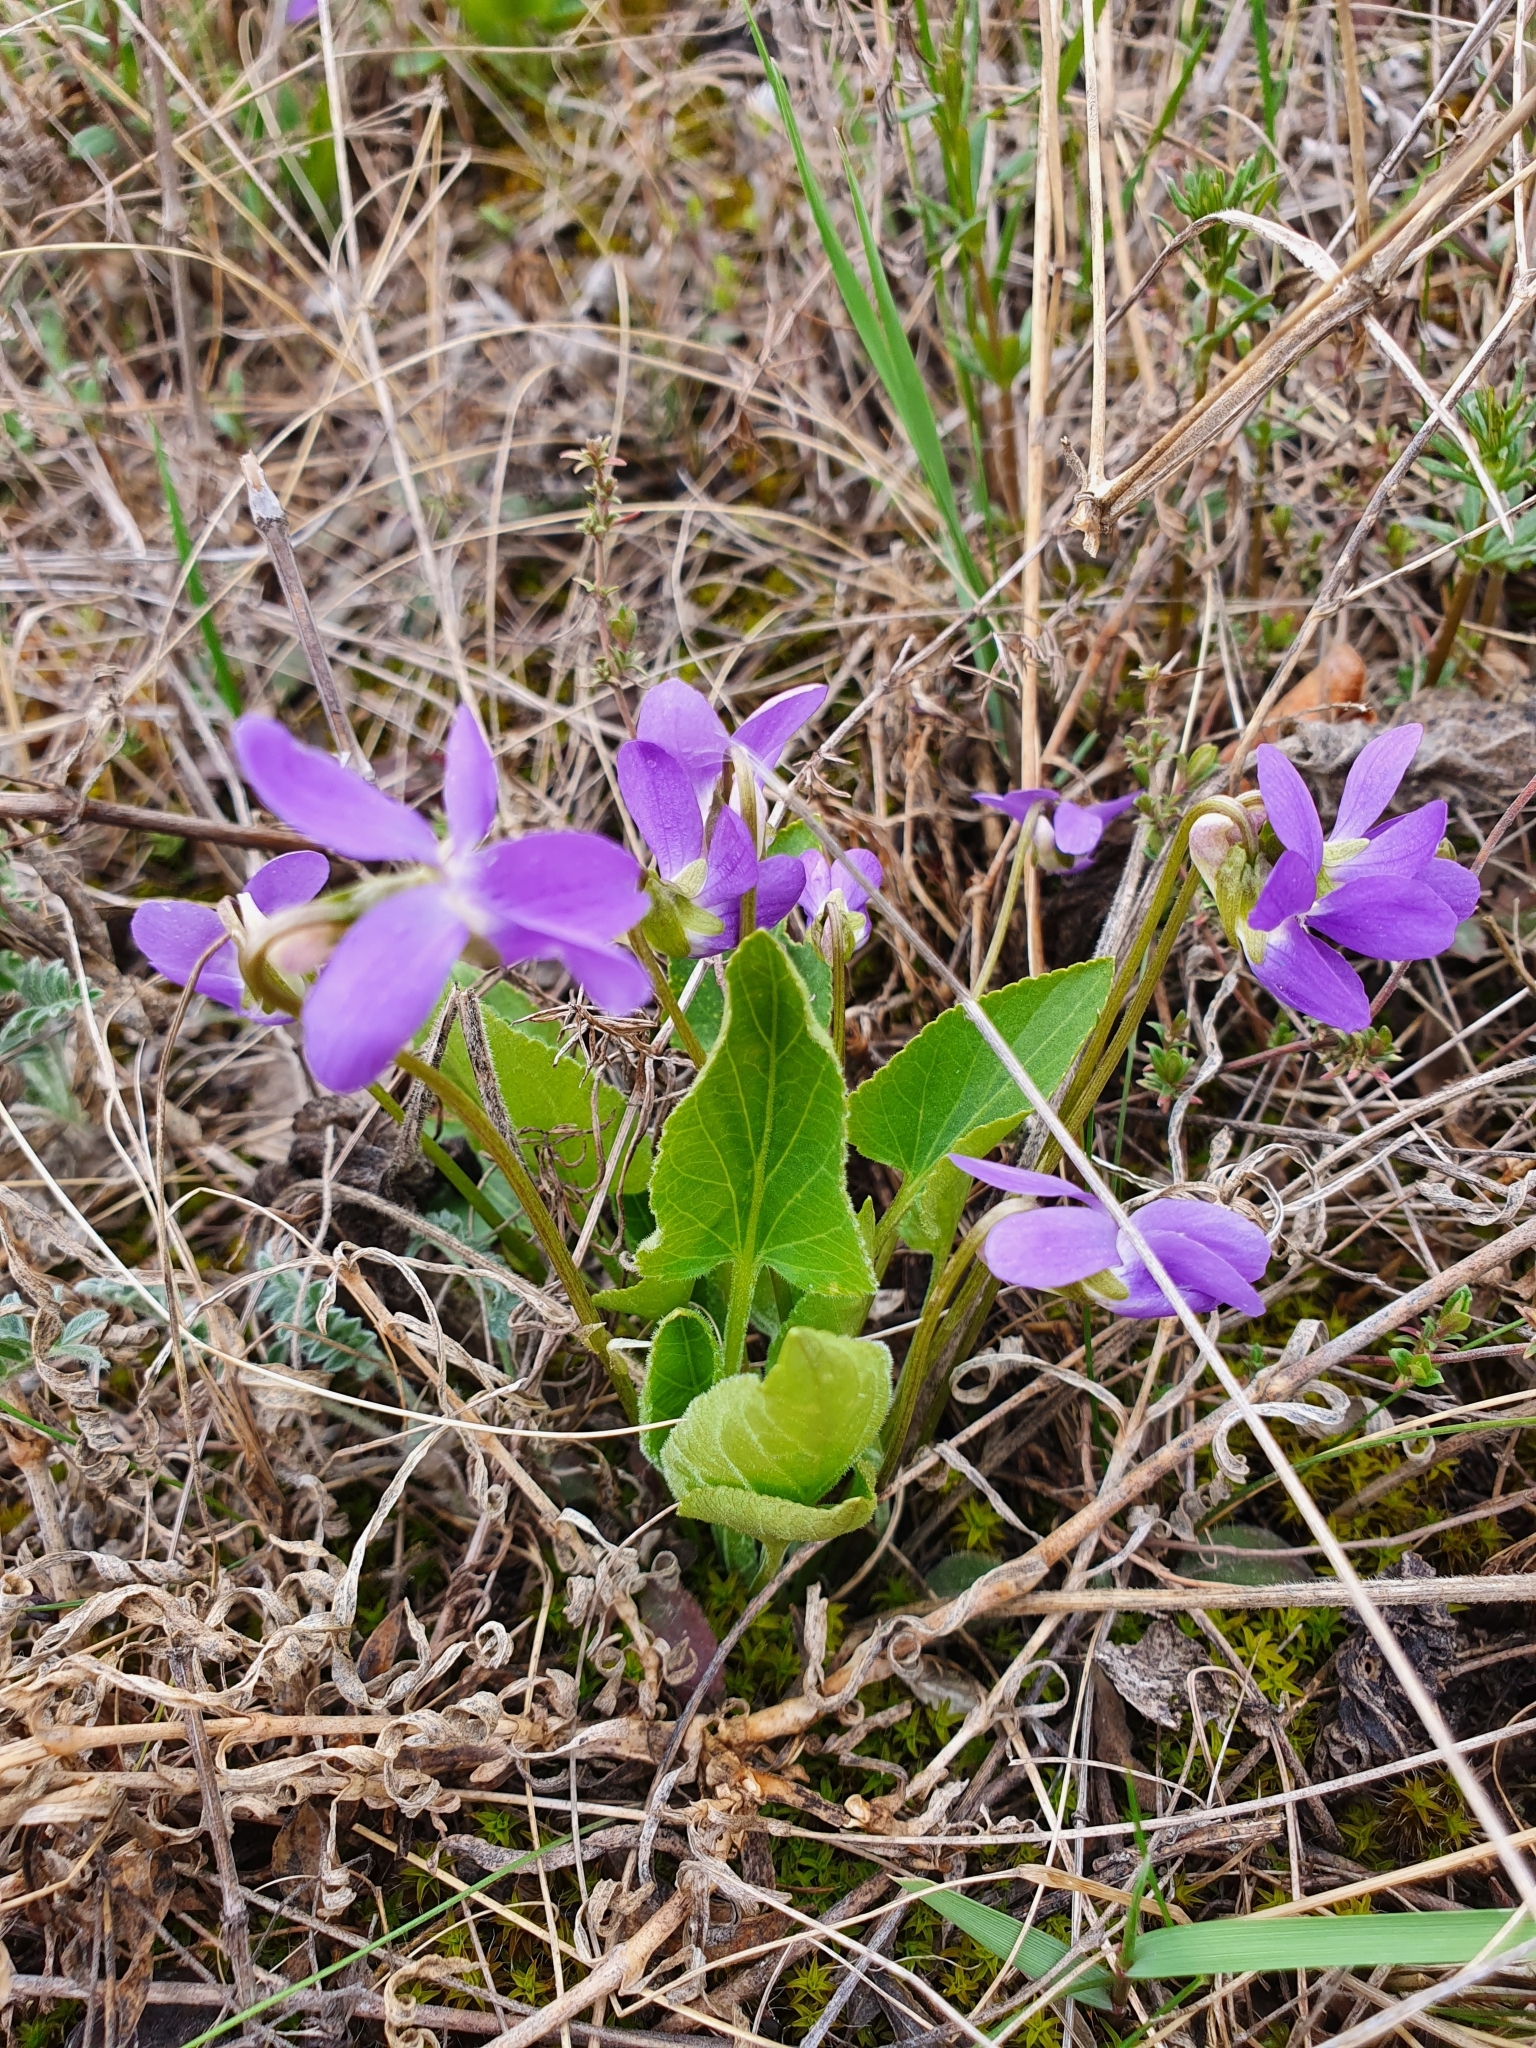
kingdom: Plantae
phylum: Tracheophyta
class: Magnoliopsida
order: Malpighiales
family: Violaceae
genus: Viola
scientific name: Viola ambigua
